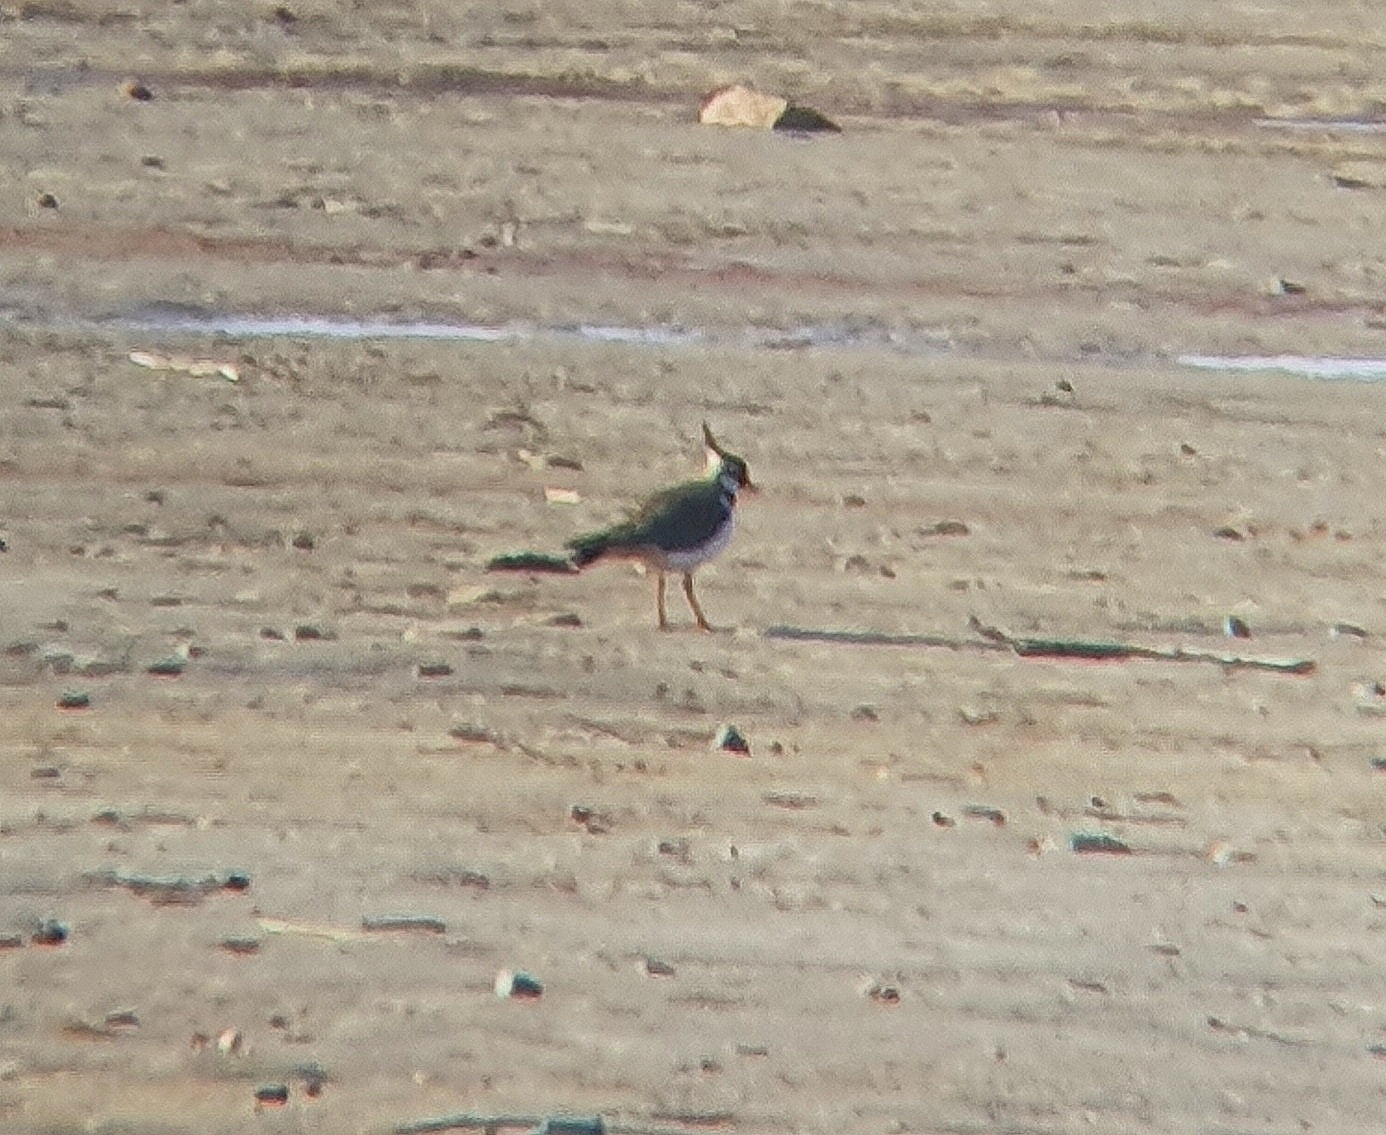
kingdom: Animalia
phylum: Chordata
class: Aves
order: Charadriiformes
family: Charadriidae
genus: Vanellus
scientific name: Vanellus vanellus
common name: Northern lapwing
